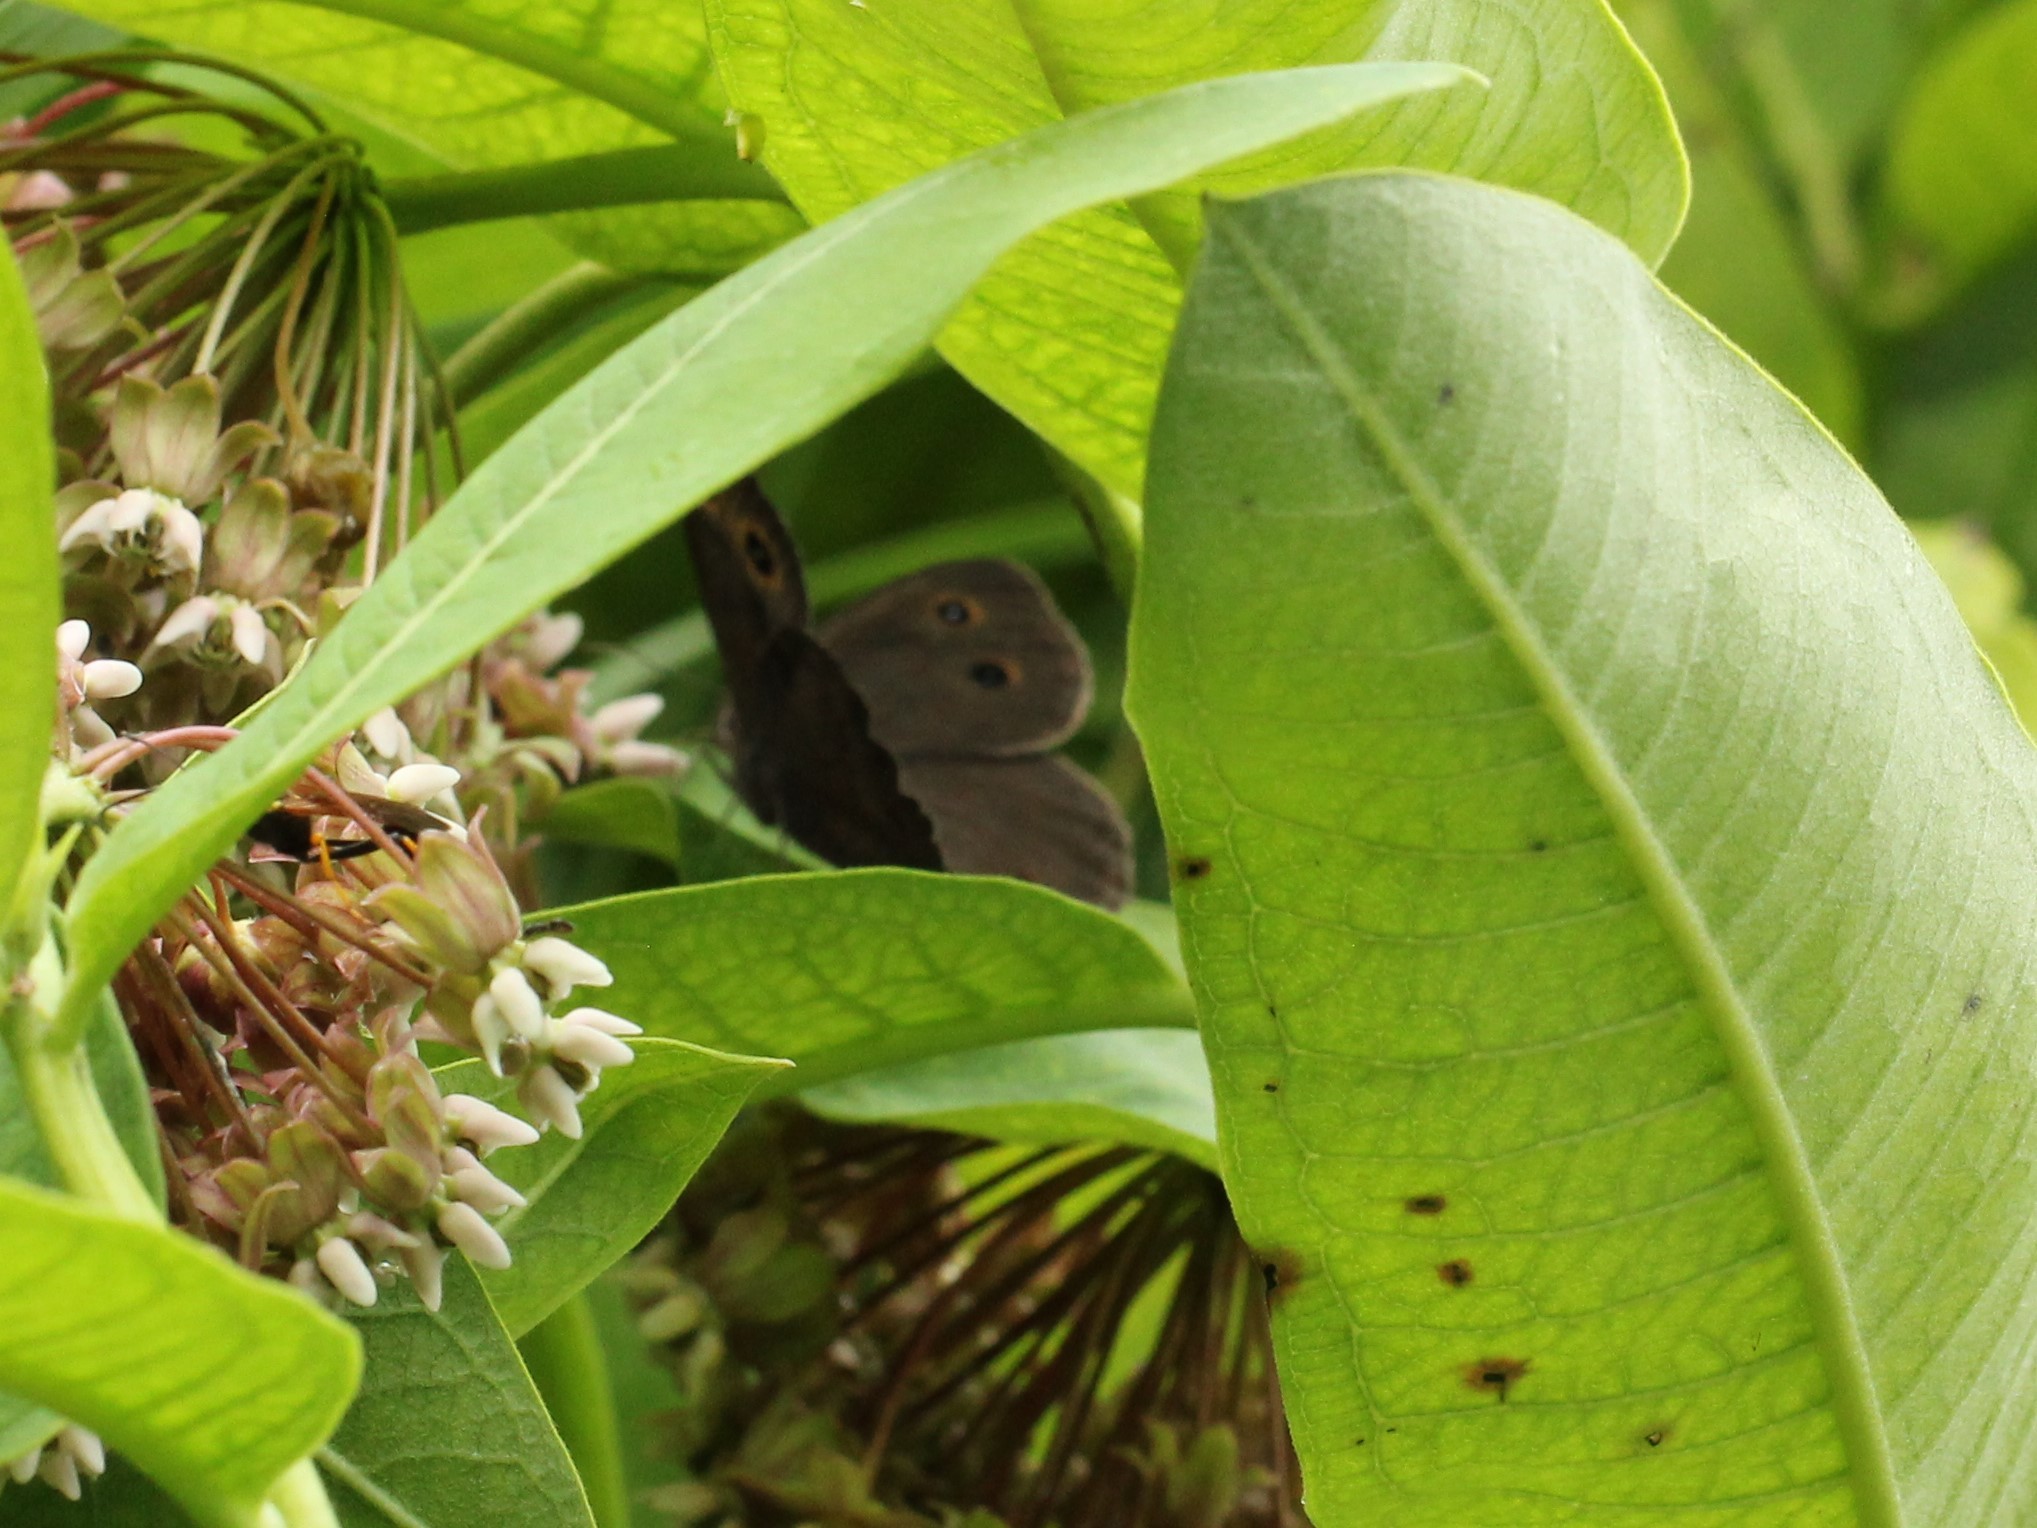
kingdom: Animalia
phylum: Arthropoda
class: Insecta
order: Lepidoptera
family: Nymphalidae
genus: Cercyonis
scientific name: Cercyonis pegala
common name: Common wood-nymph
